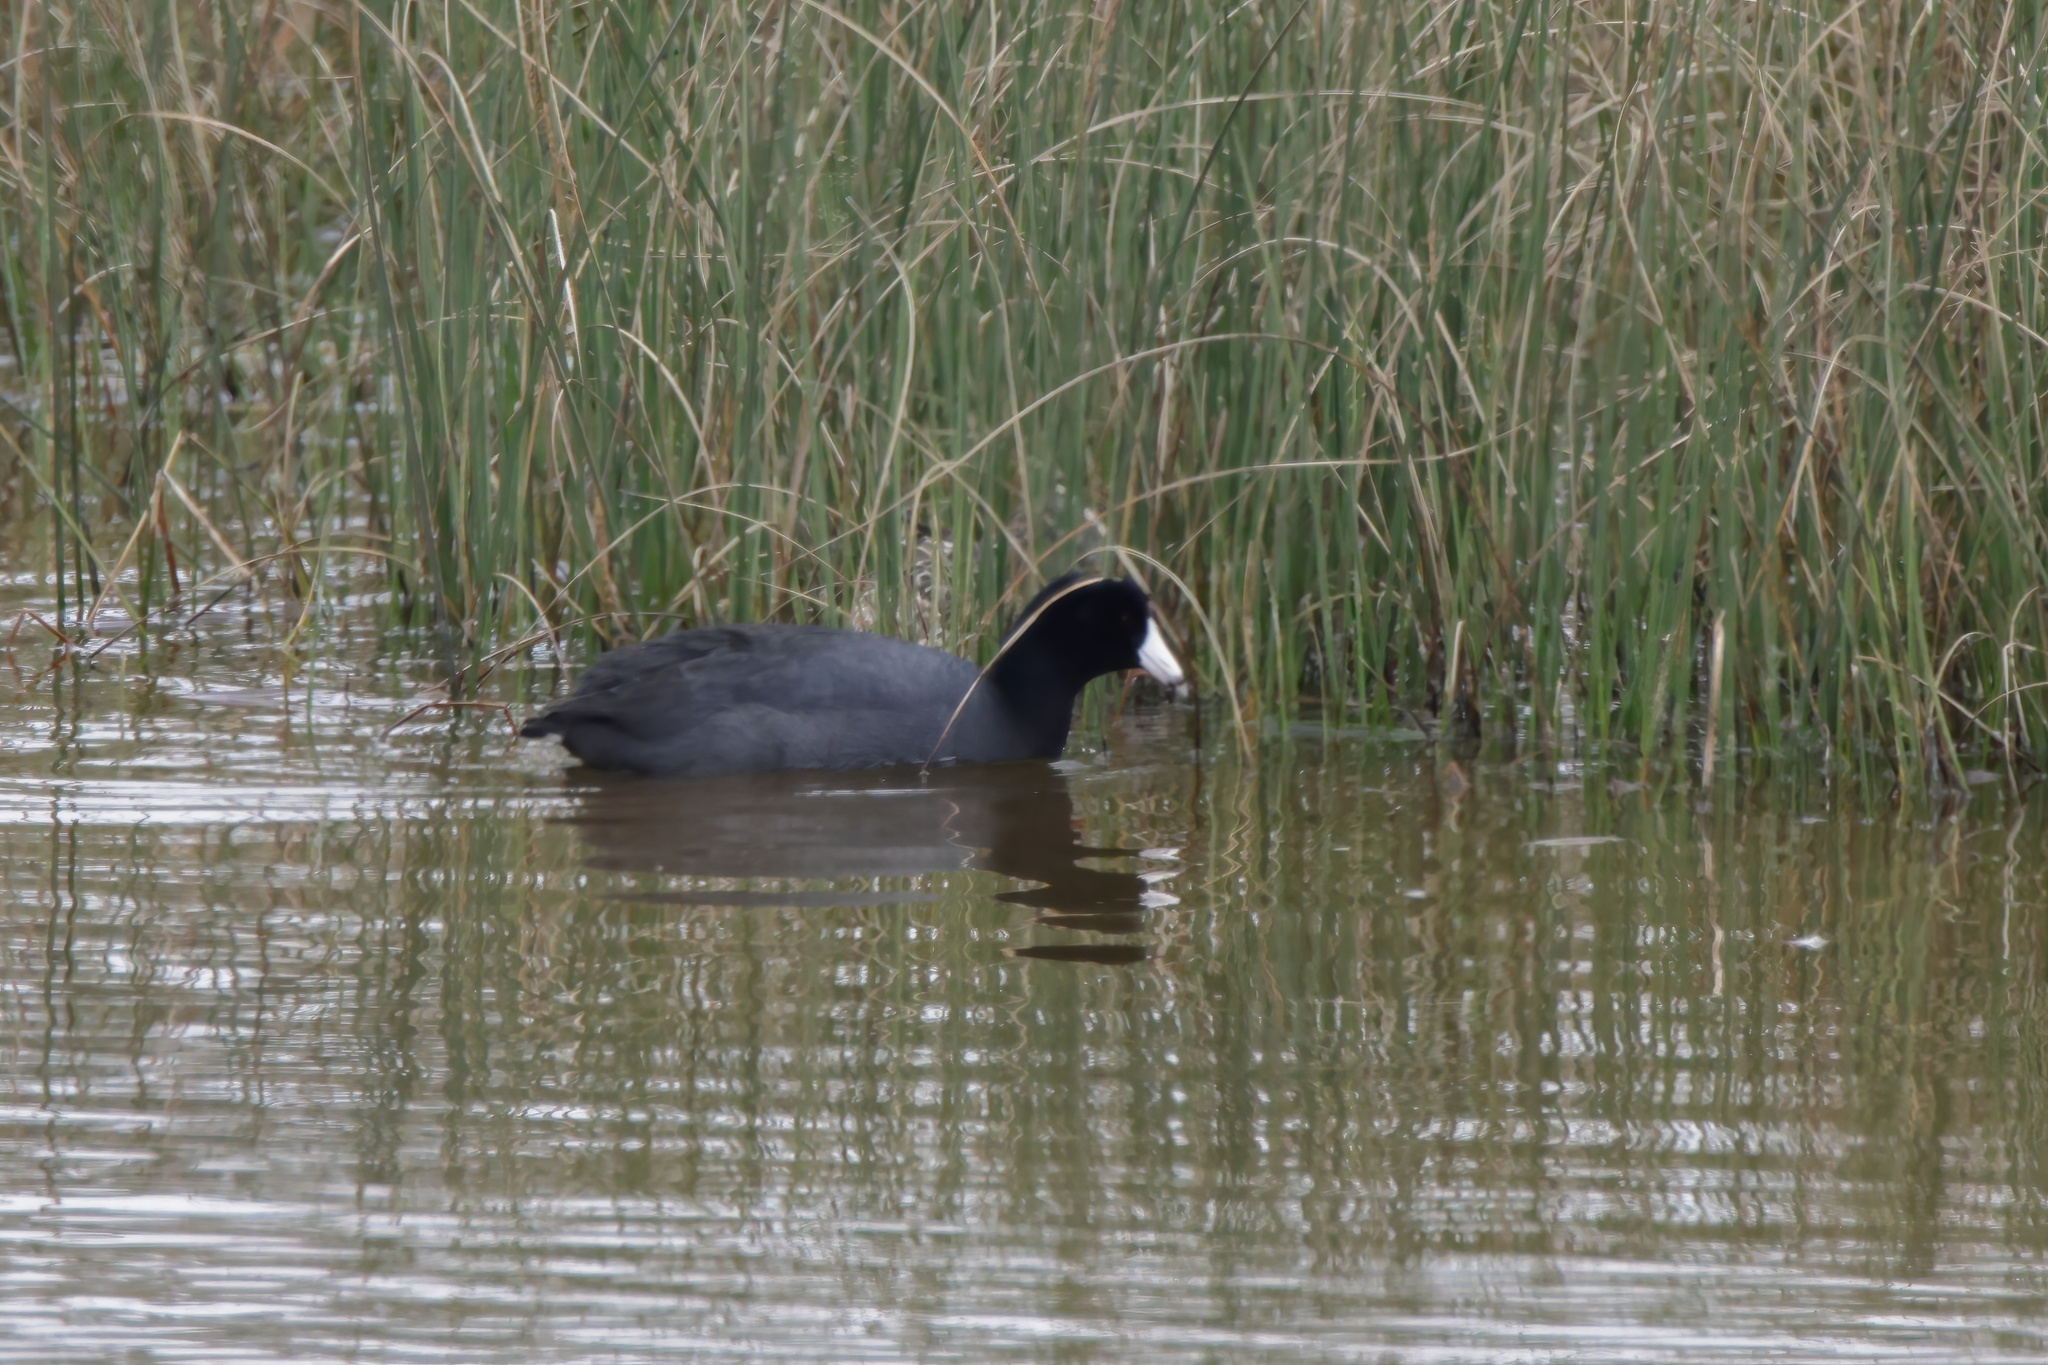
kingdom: Animalia
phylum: Chordata
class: Aves
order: Gruiformes
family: Rallidae
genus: Fulica
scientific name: Fulica americana
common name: American coot
